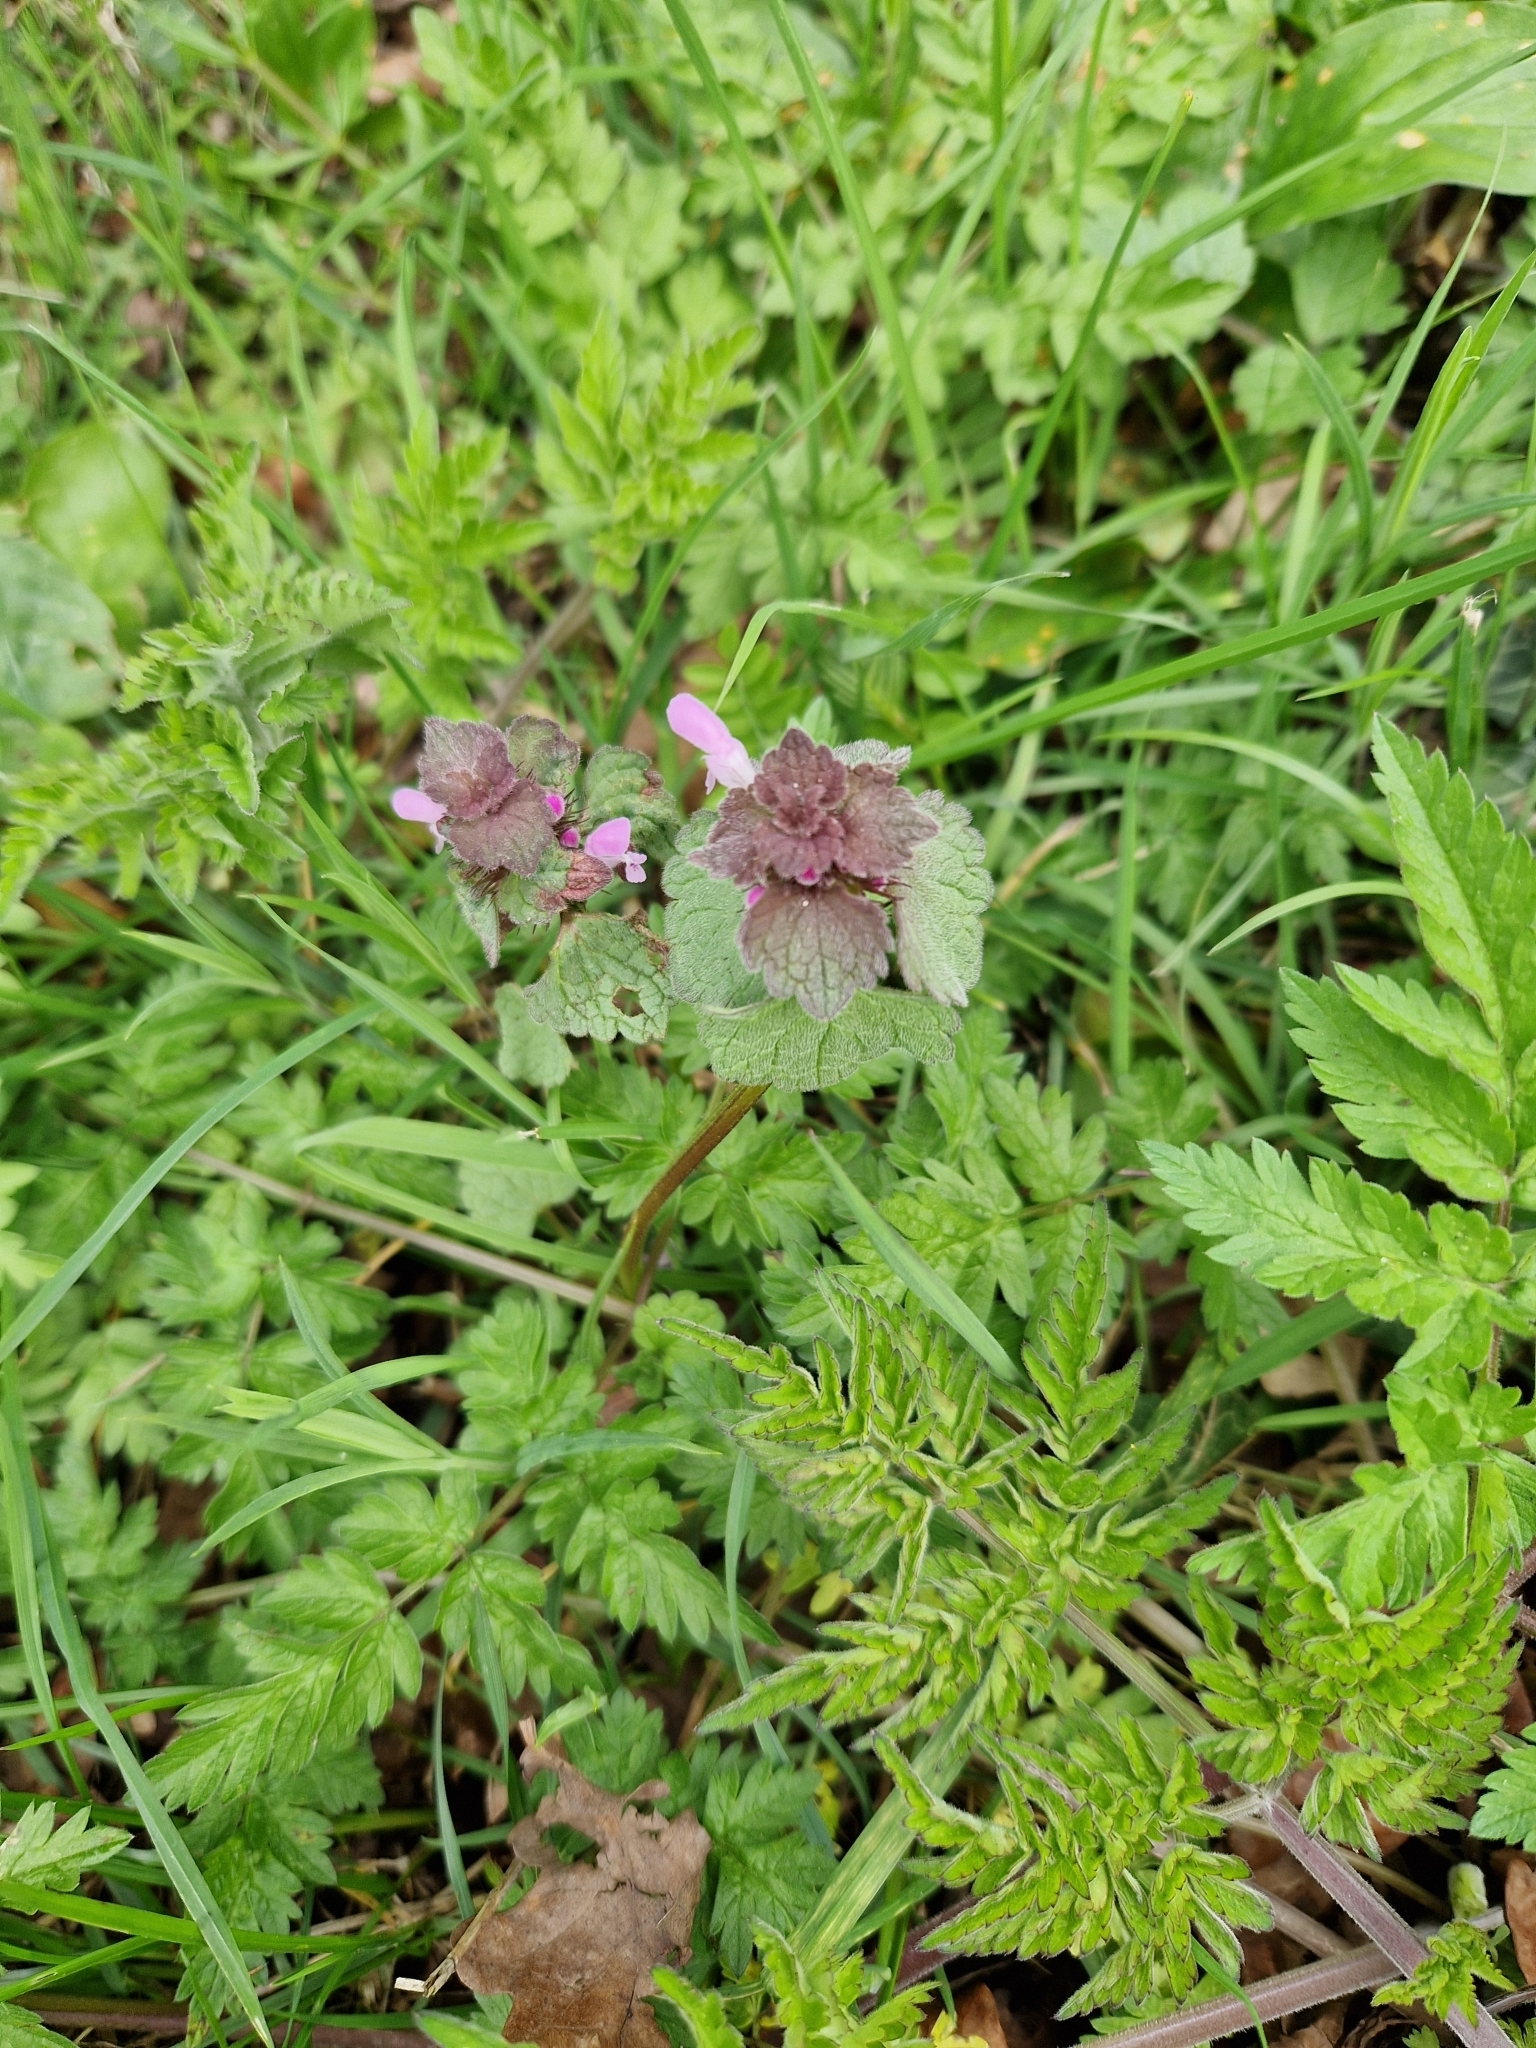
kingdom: Plantae
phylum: Tracheophyta
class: Magnoliopsida
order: Lamiales
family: Lamiaceae
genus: Lamium
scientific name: Lamium purpureum
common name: Red dead-nettle
